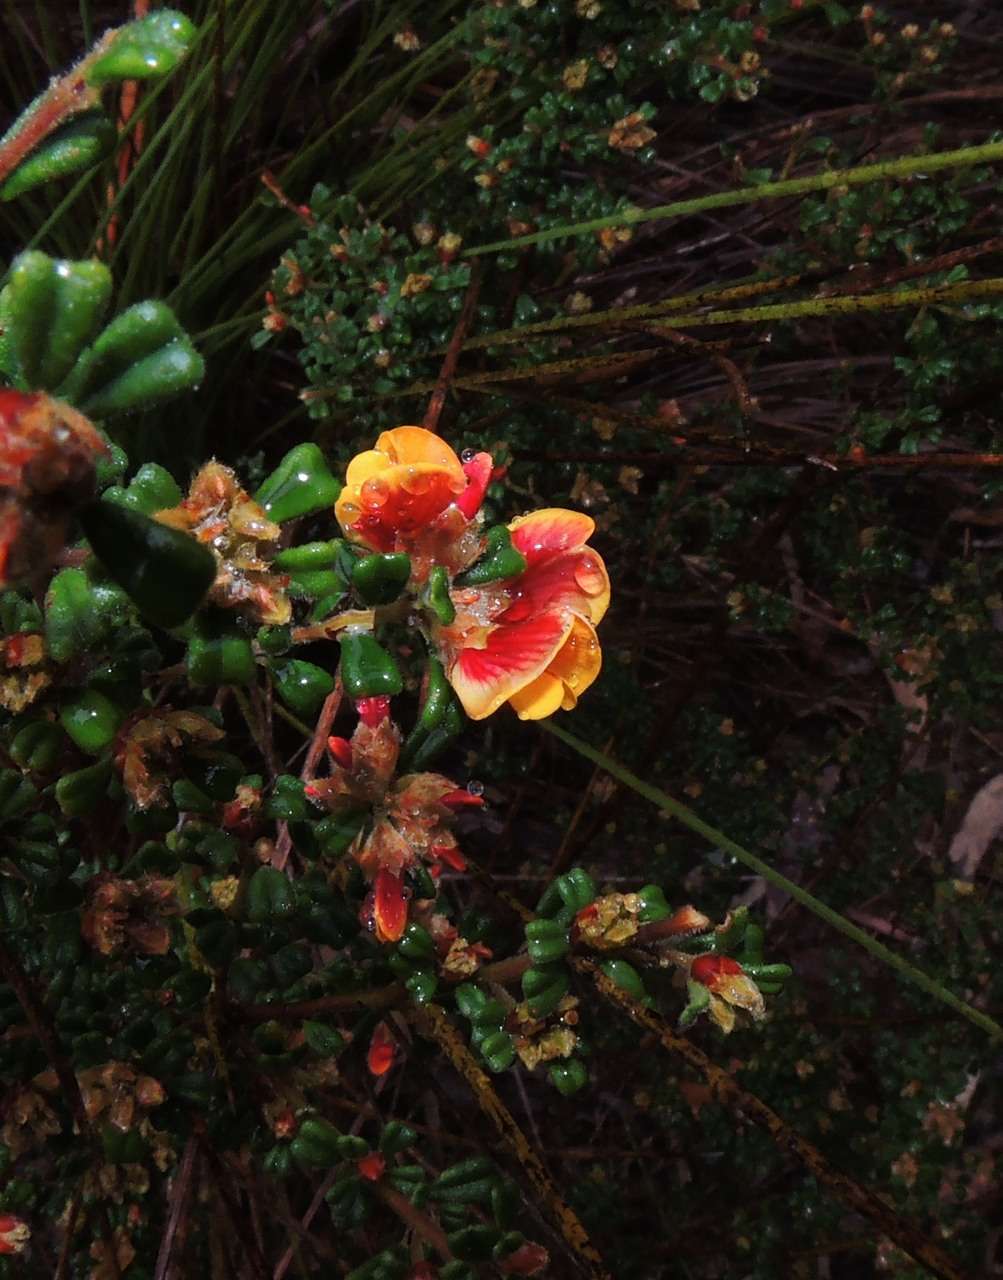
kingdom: Plantae
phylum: Tracheophyta
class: Magnoliopsida
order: Fabales
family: Fabaceae
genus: Pultenaea
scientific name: Pultenaea scabra
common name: Rough bush-pea
